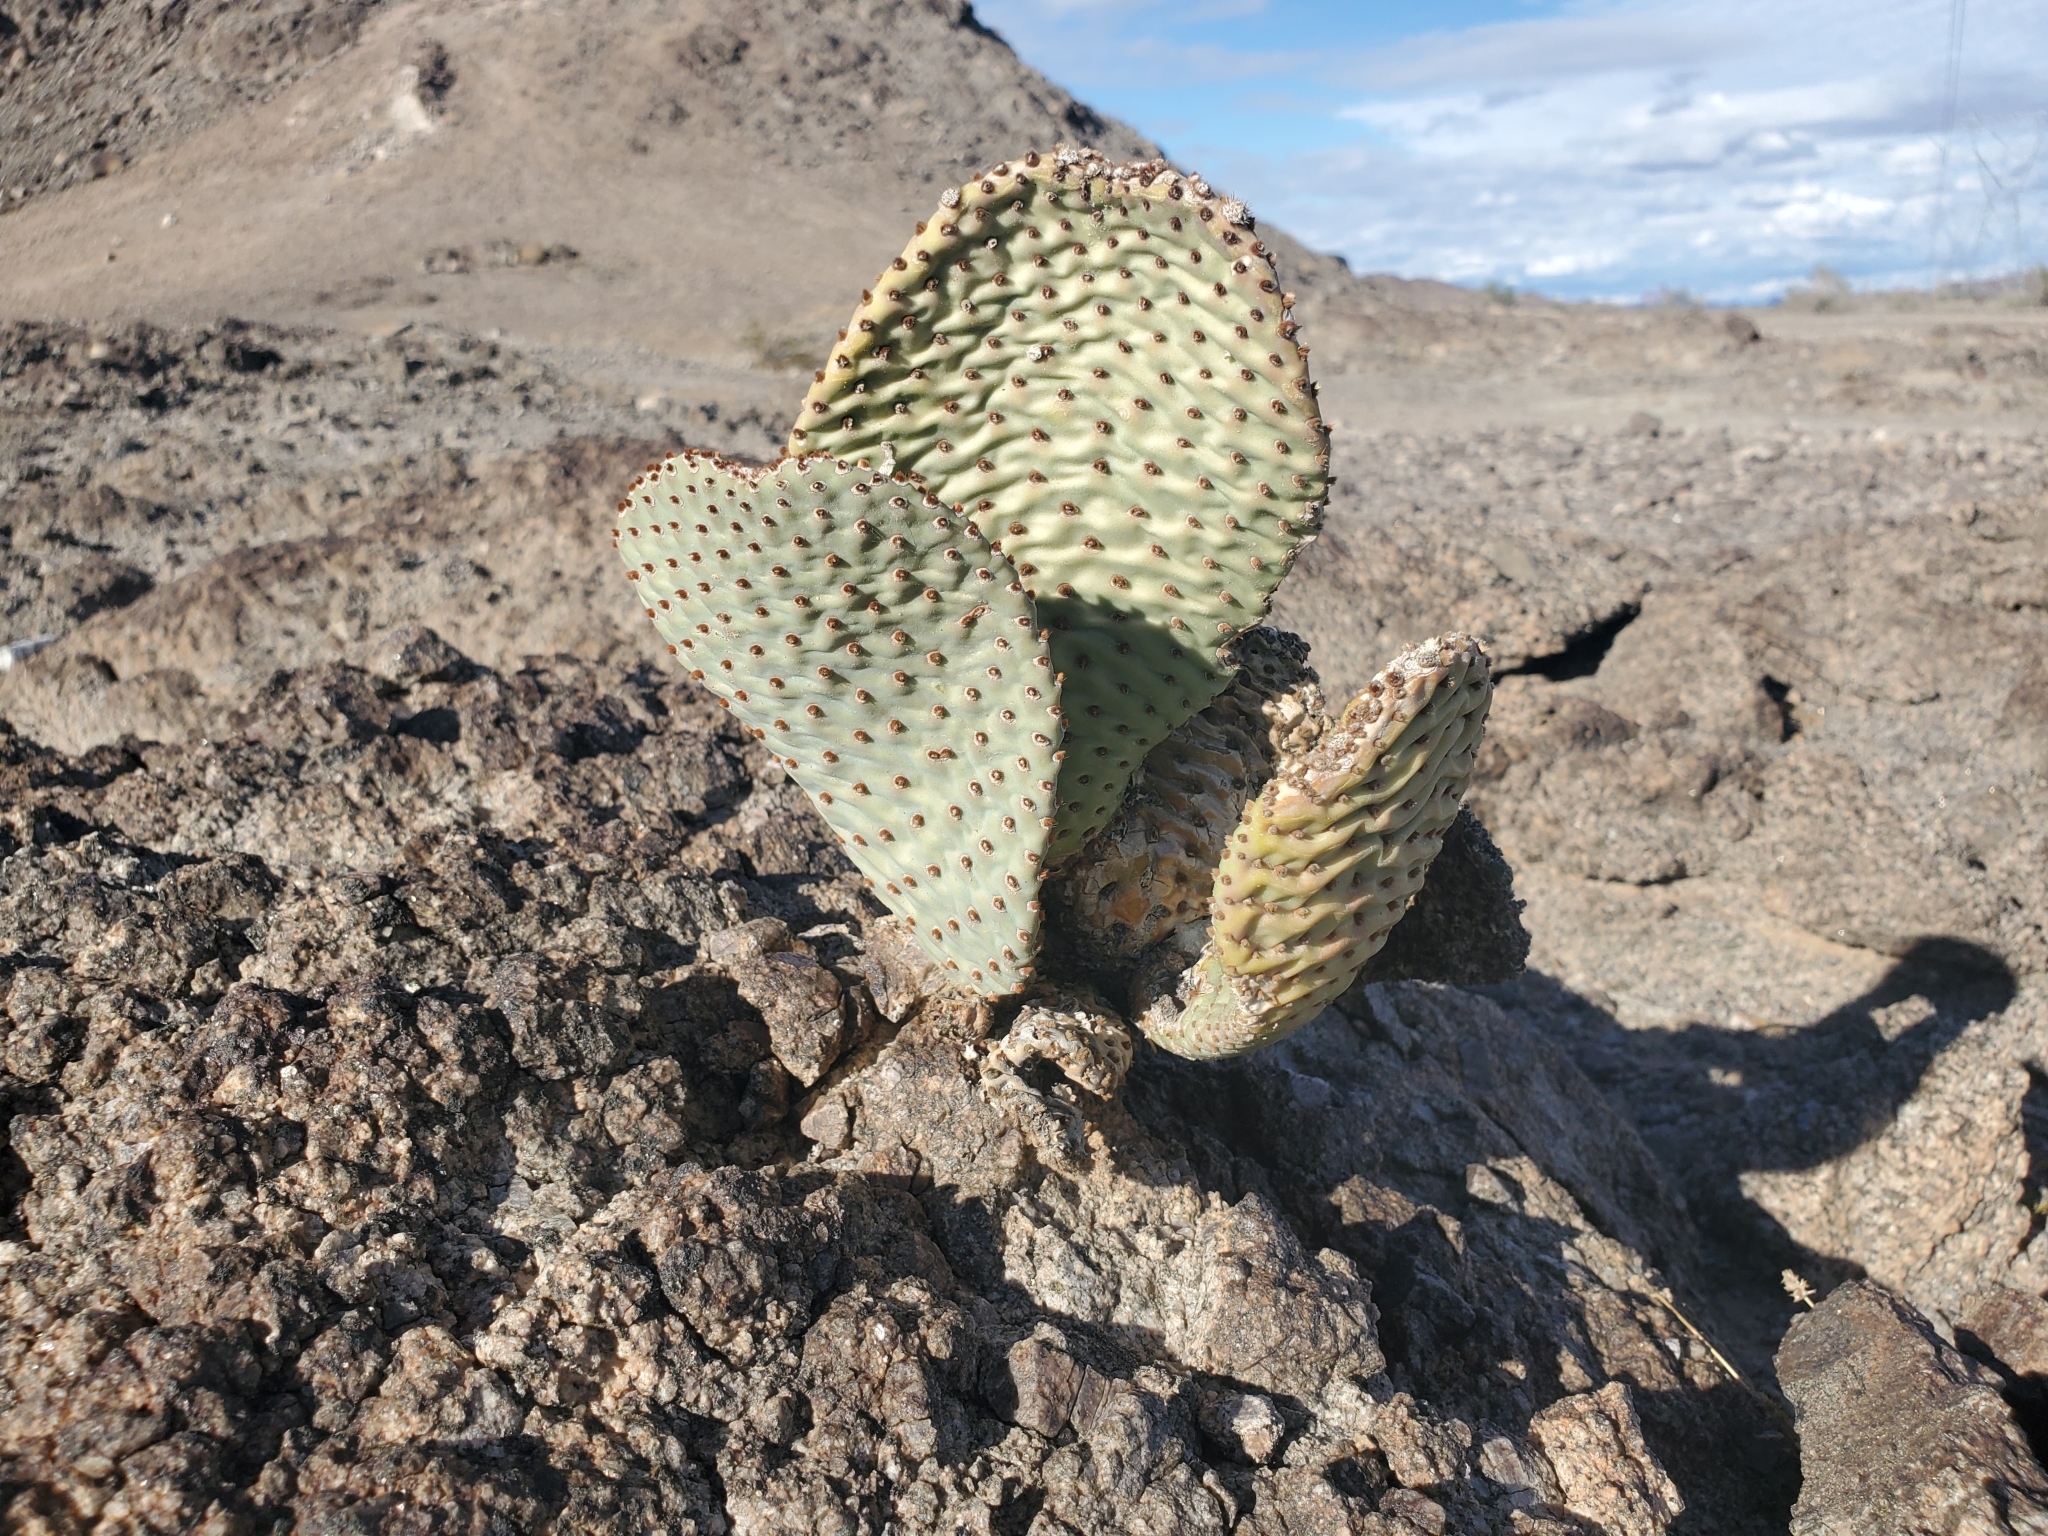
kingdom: Plantae
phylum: Tracheophyta
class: Magnoliopsida
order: Caryophyllales
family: Cactaceae
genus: Opuntia
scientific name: Opuntia basilaris
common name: Beavertail prickly-pear
